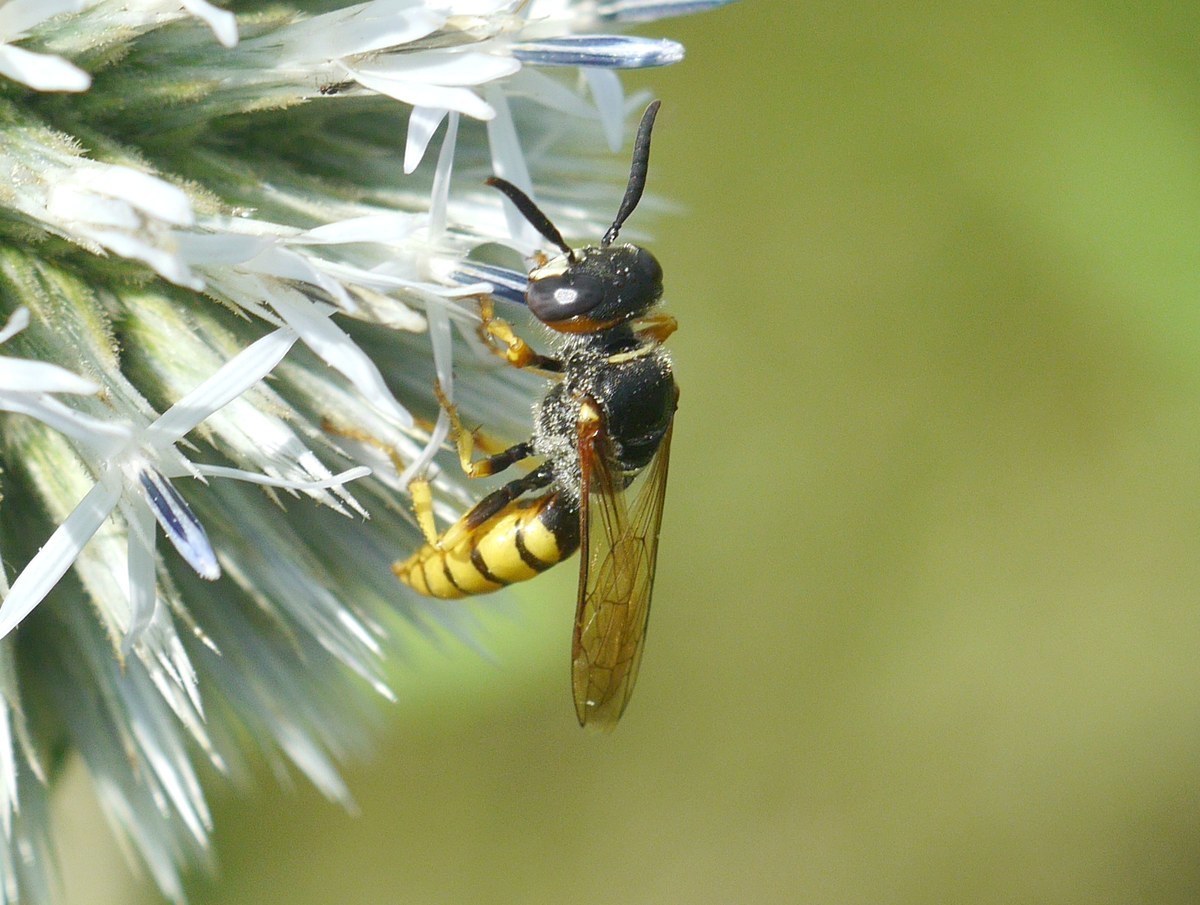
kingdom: Animalia
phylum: Arthropoda
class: Insecta
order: Hymenoptera
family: Crabronidae
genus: Philanthus
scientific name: Philanthus triangulum
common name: Bee wolf
